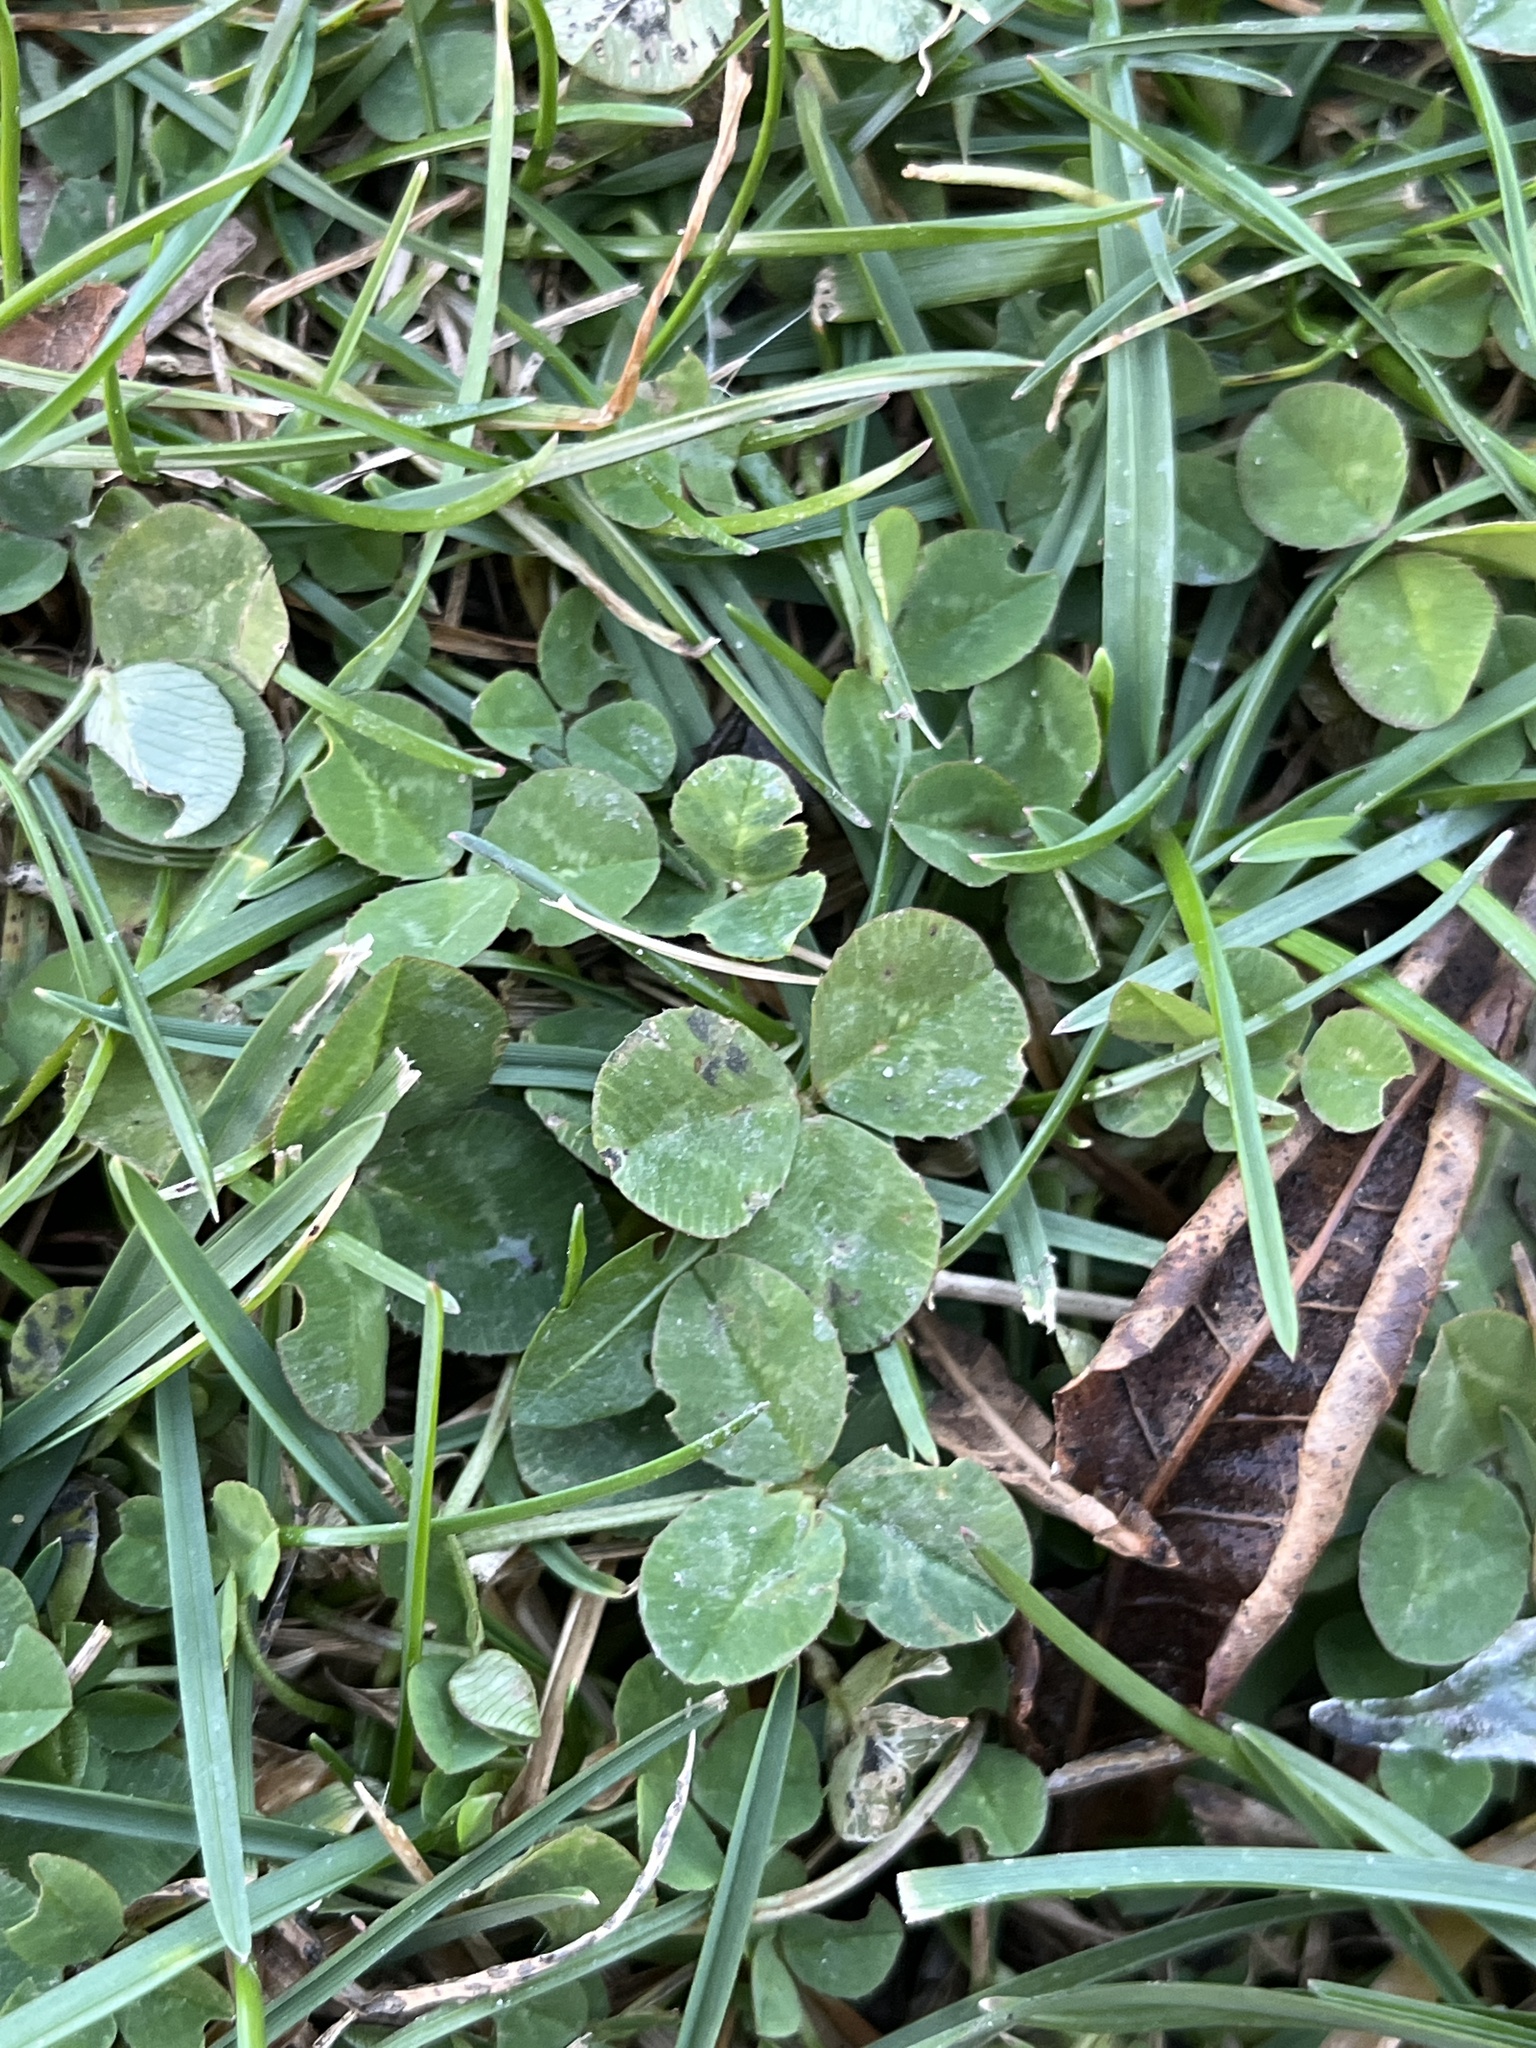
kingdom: Plantae
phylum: Tracheophyta
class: Magnoliopsida
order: Fabales
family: Fabaceae
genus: Trifolium
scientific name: Trifolium repens
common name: White clover
